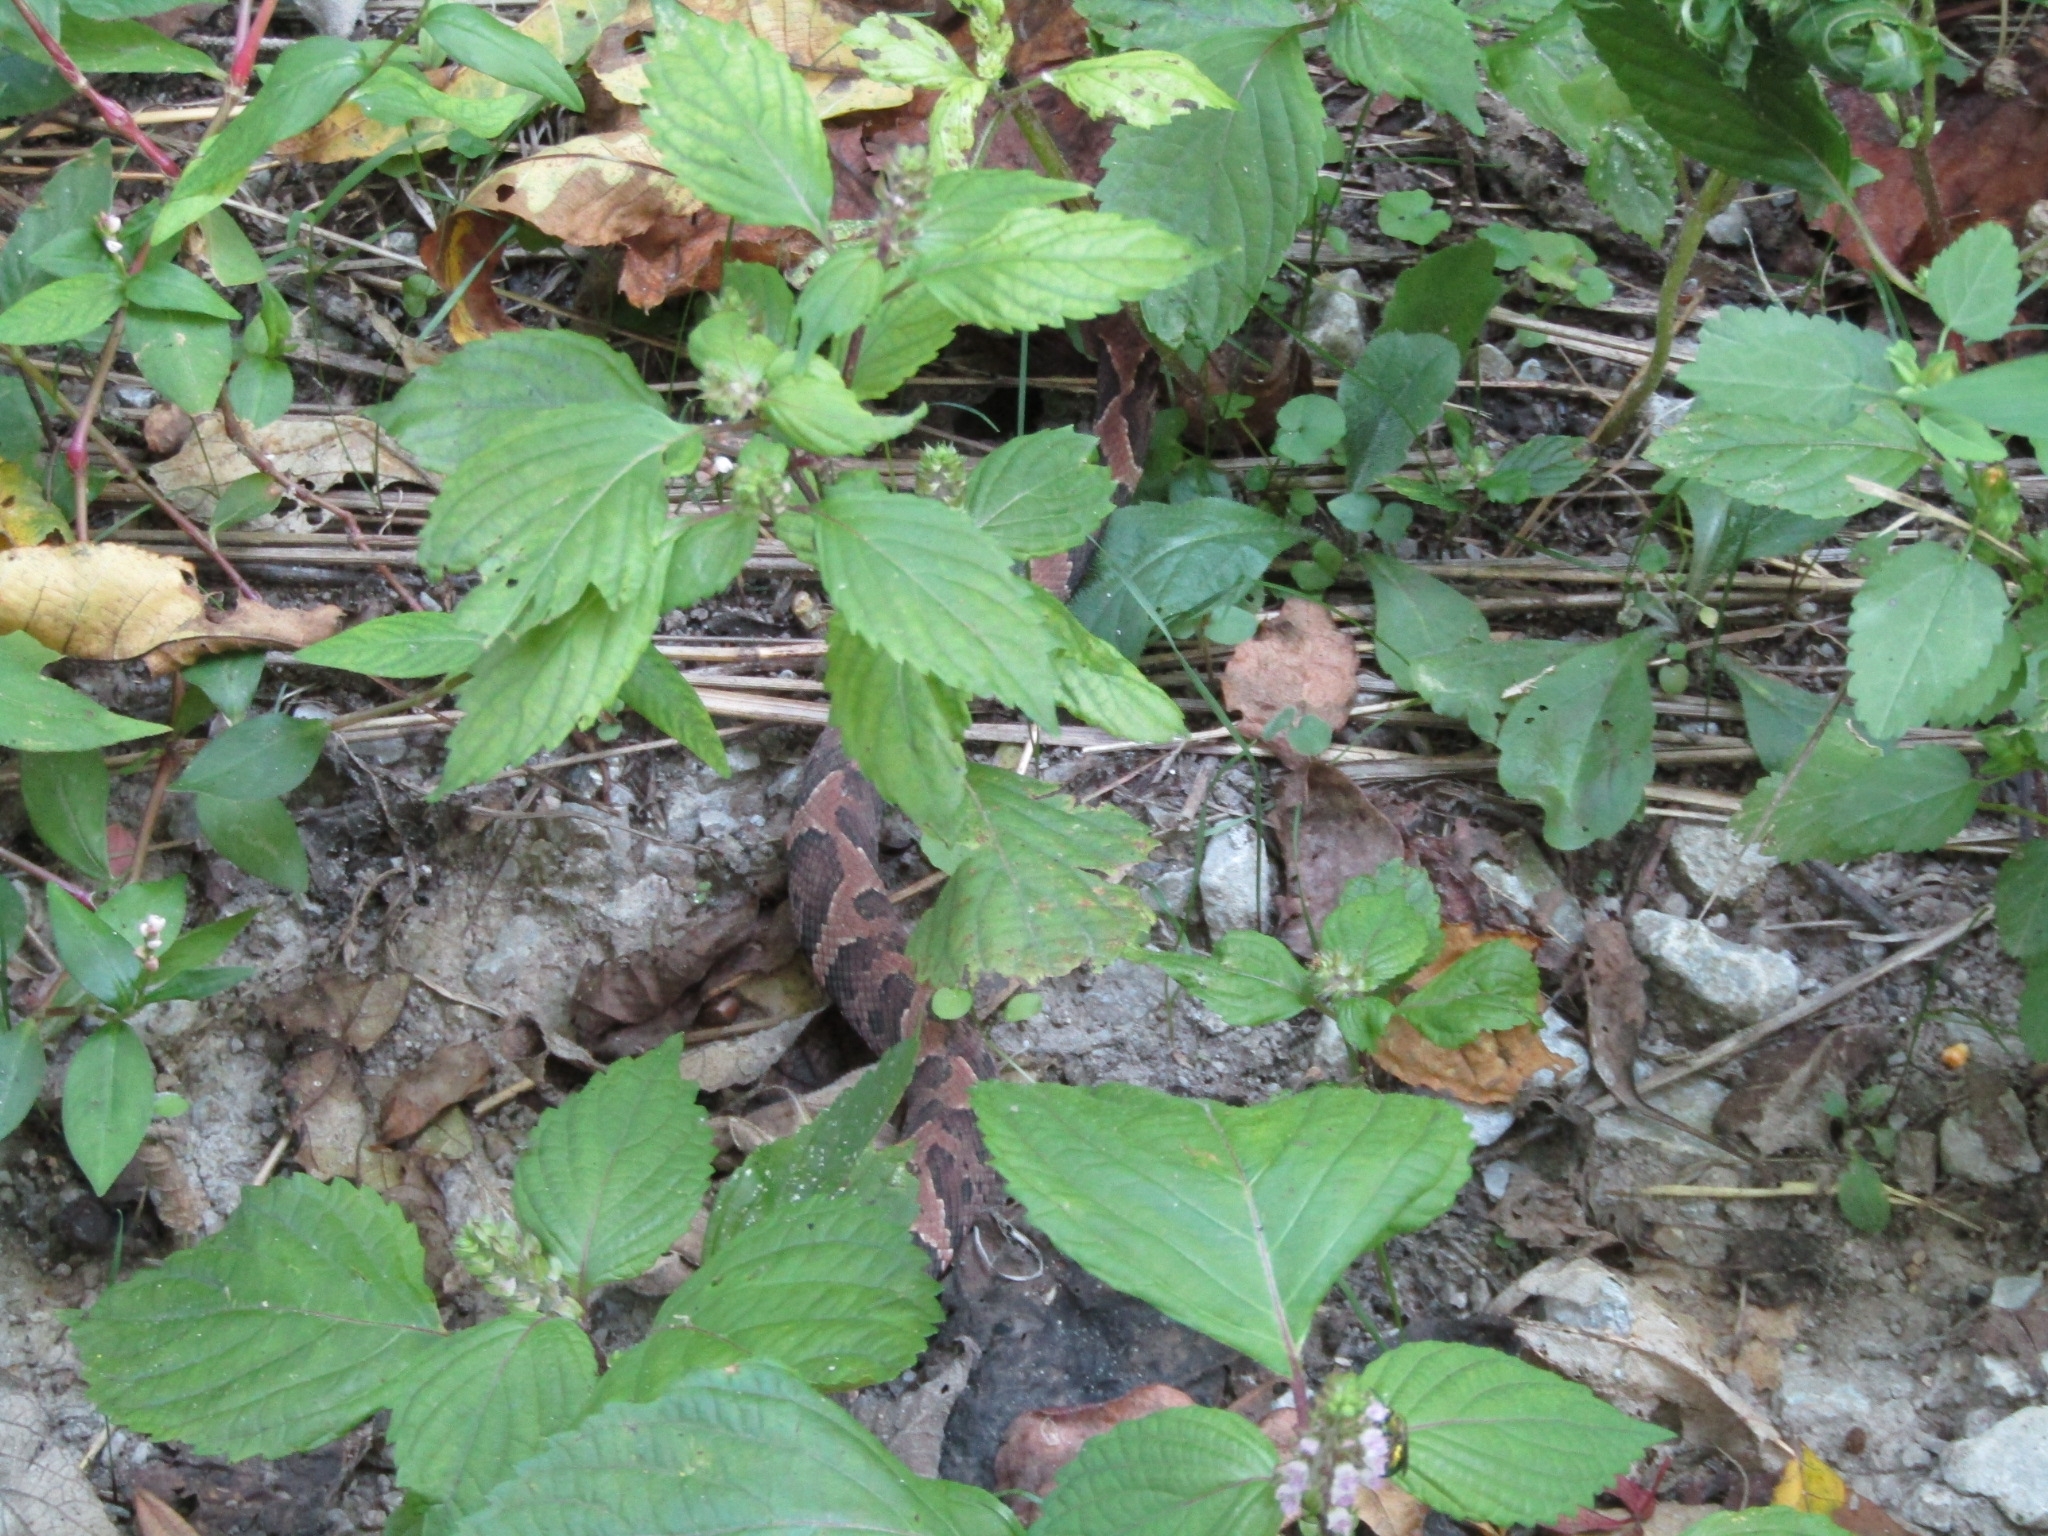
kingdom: Animalia
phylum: Chordata
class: Squamata
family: Viperidae
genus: Agkistrodon
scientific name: Agkistrodon piscivorus
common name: Cottonmouth
